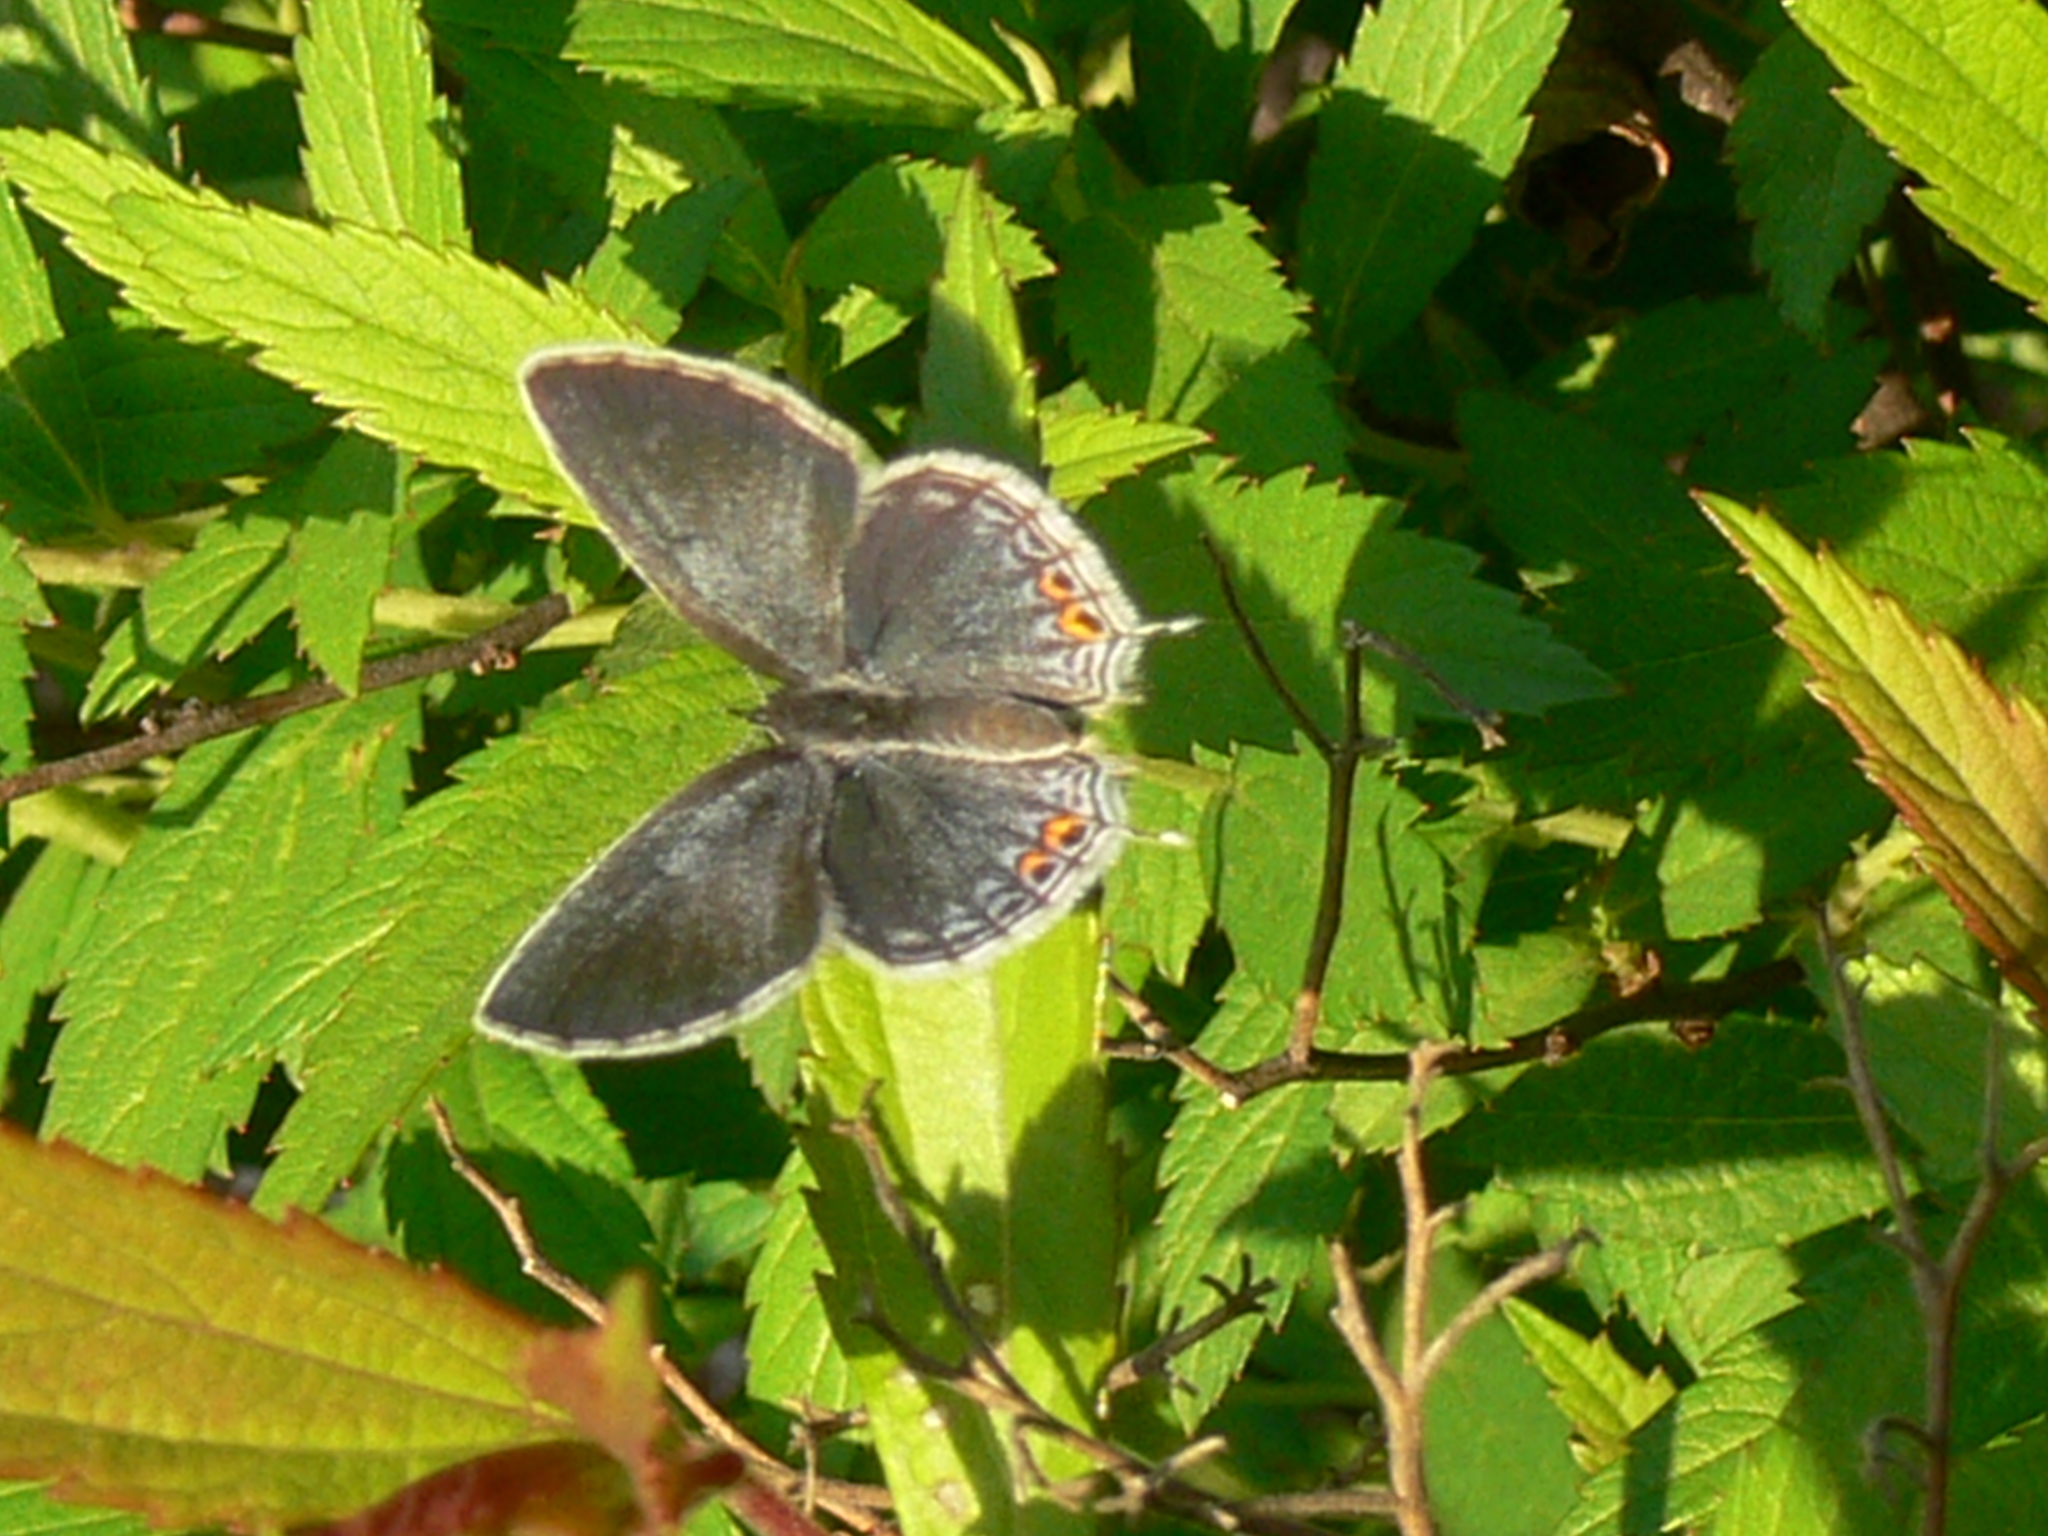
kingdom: Animalia
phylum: Arthropoda
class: Insecta
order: Lepidoptera
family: Lycaenidae
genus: Elkalyce
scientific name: Elkalyce comyntas
